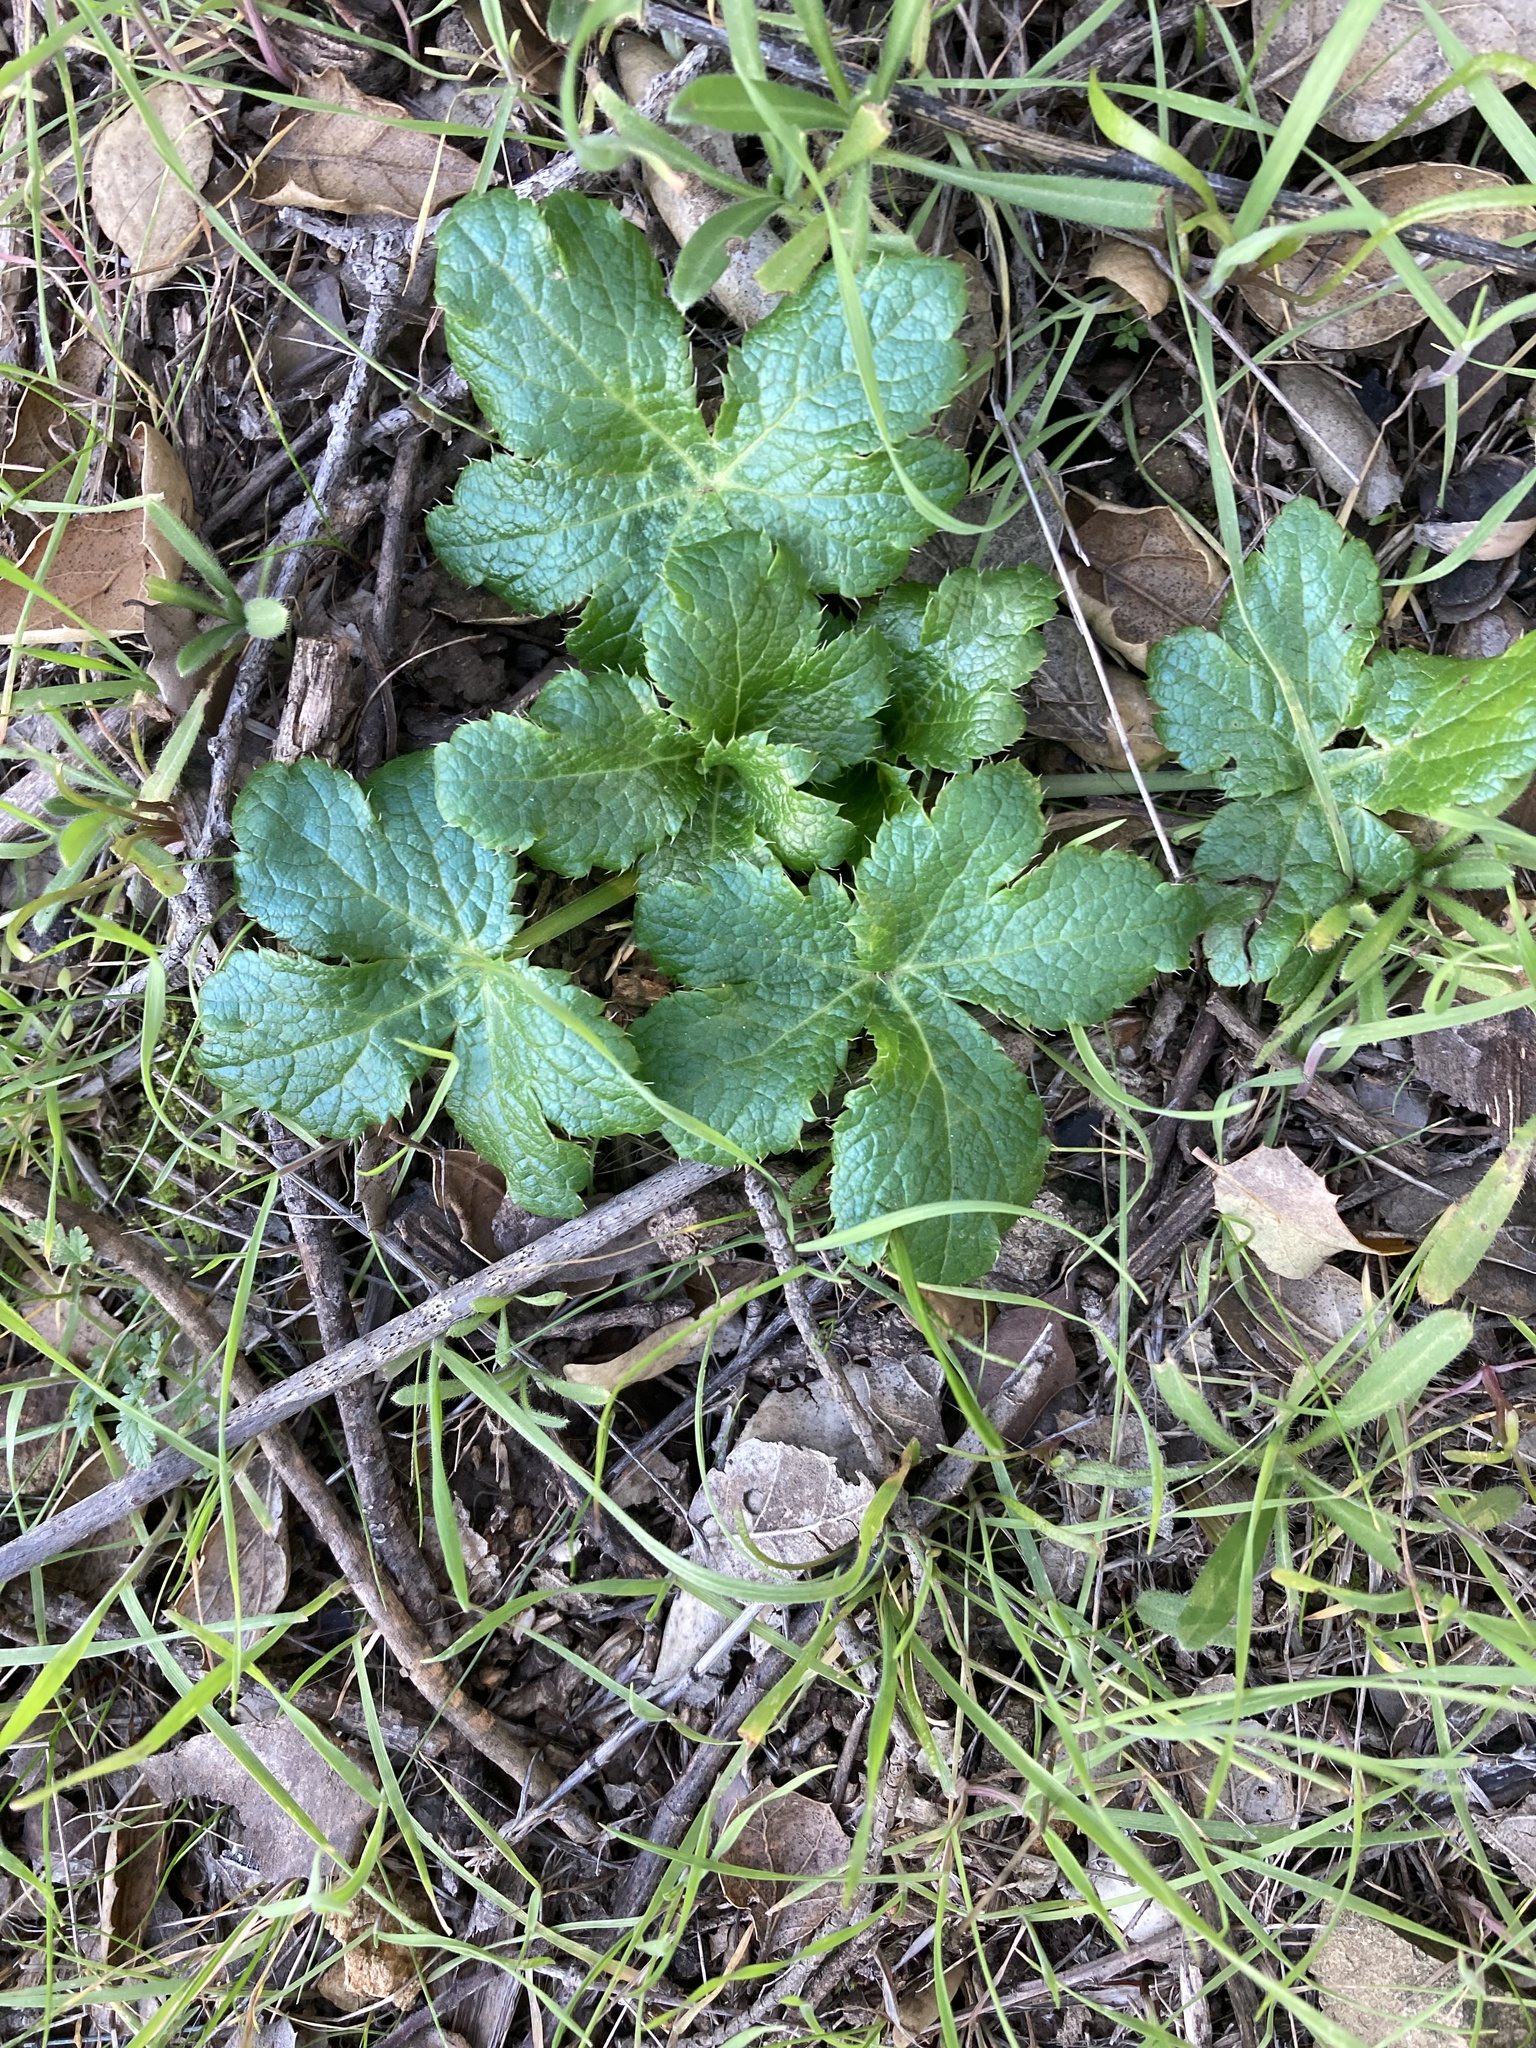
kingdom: Plantae
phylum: Tracheophyta
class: Magnoliopsida
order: Apiales
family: Apiaceae
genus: Sanicula
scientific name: Sanicula crassicaulis
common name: Western snakeroot
